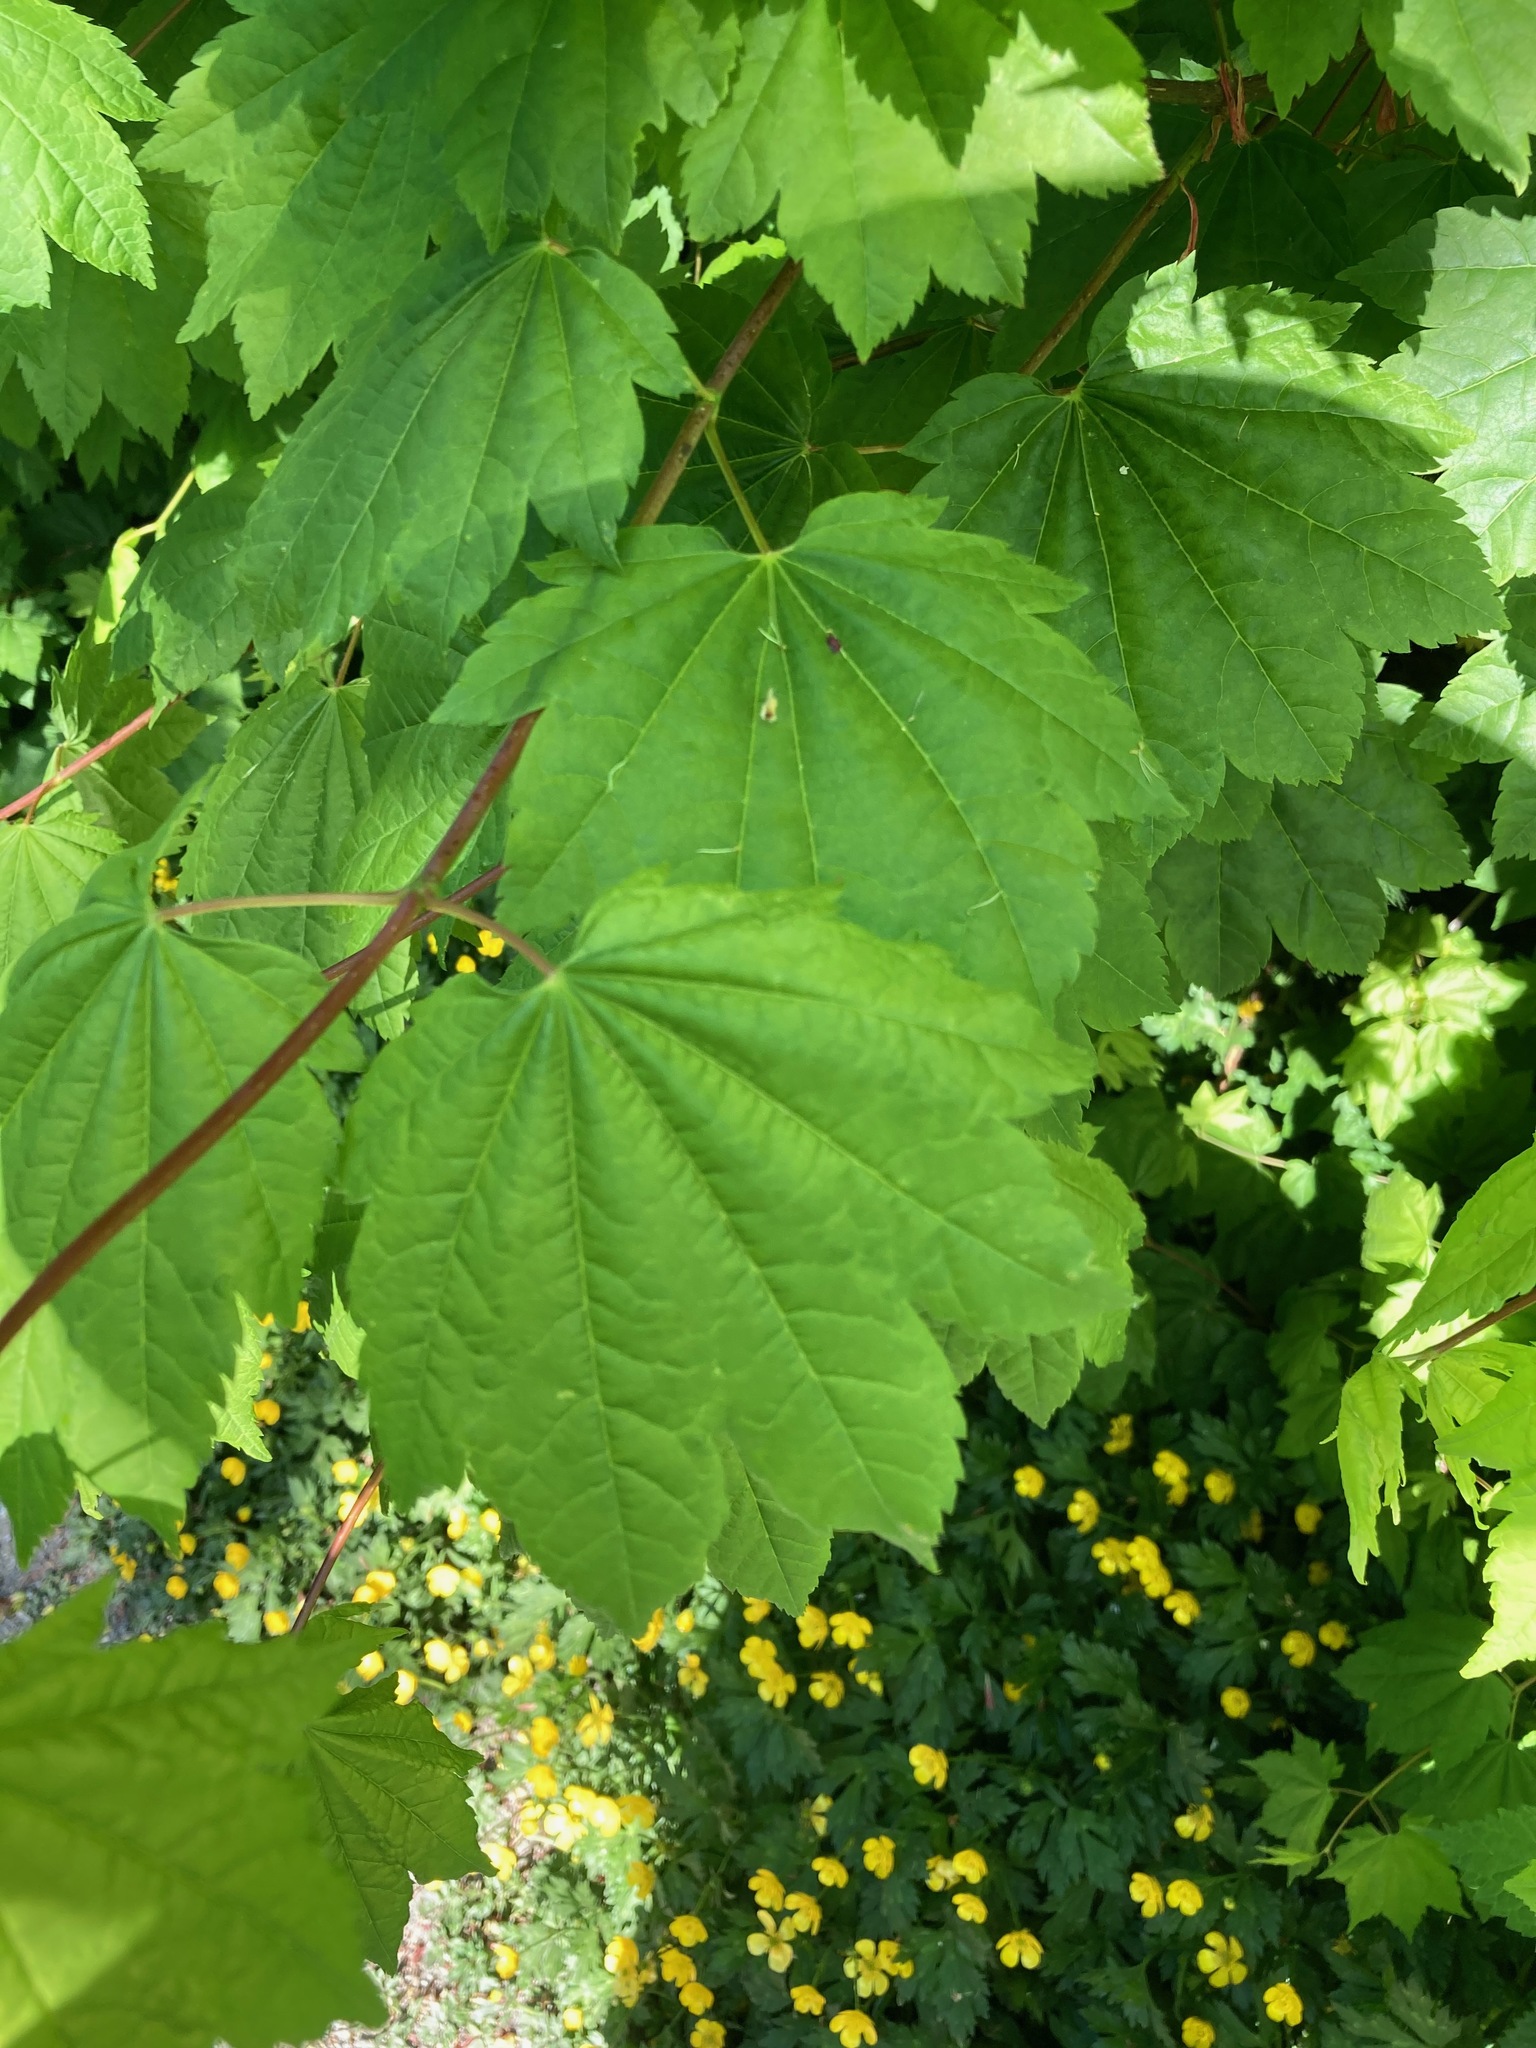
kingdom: Plantae
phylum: Tracheophyta
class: Magnoliopsida
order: Sapindales
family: Sapindaceae
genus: Acer
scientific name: Acer circinatum
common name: Vine maple
